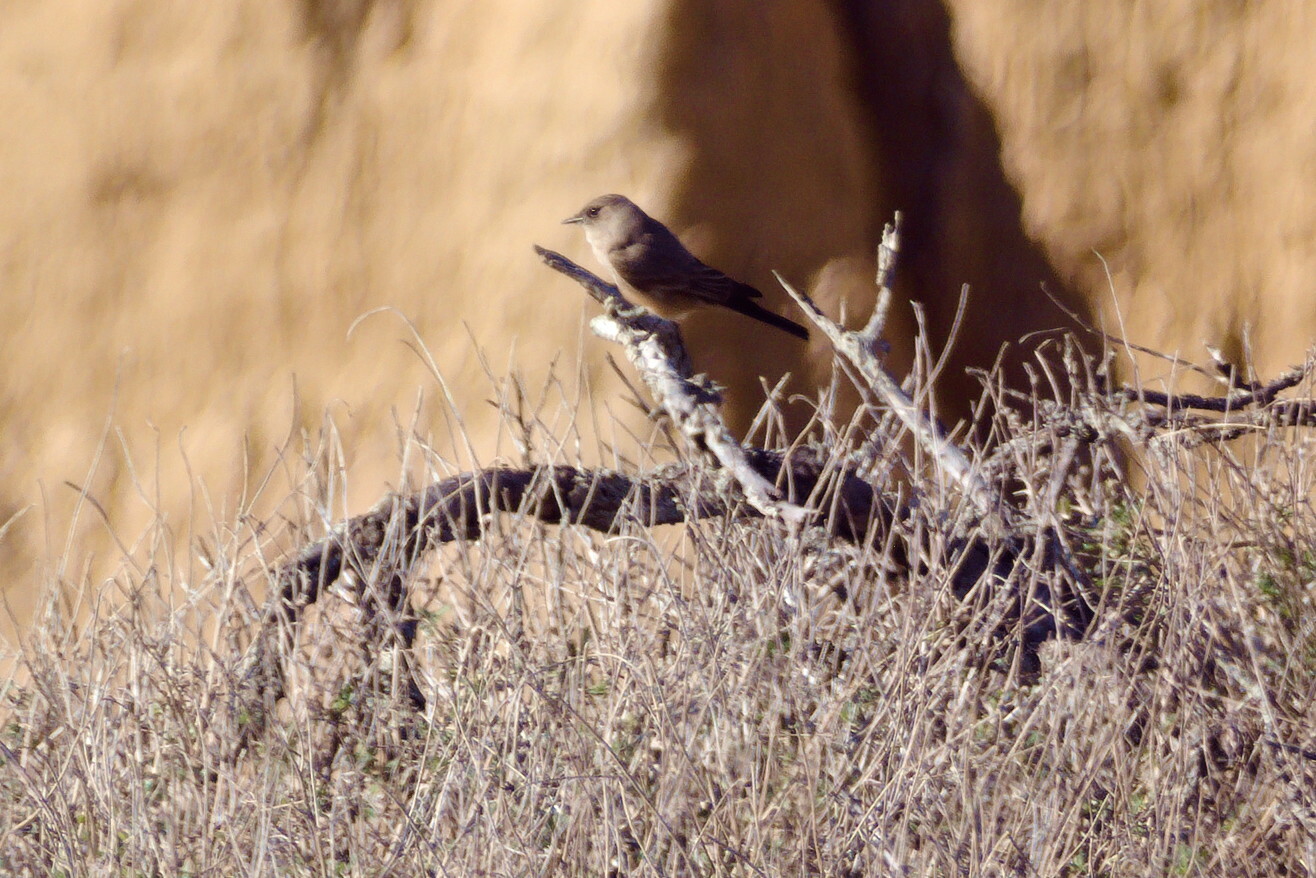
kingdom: Animalia
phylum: Chordata
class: Aves
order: Passeriformes
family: Tyrannidae
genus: Sayornis
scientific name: Sayornis saya
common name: Say's phoebe
